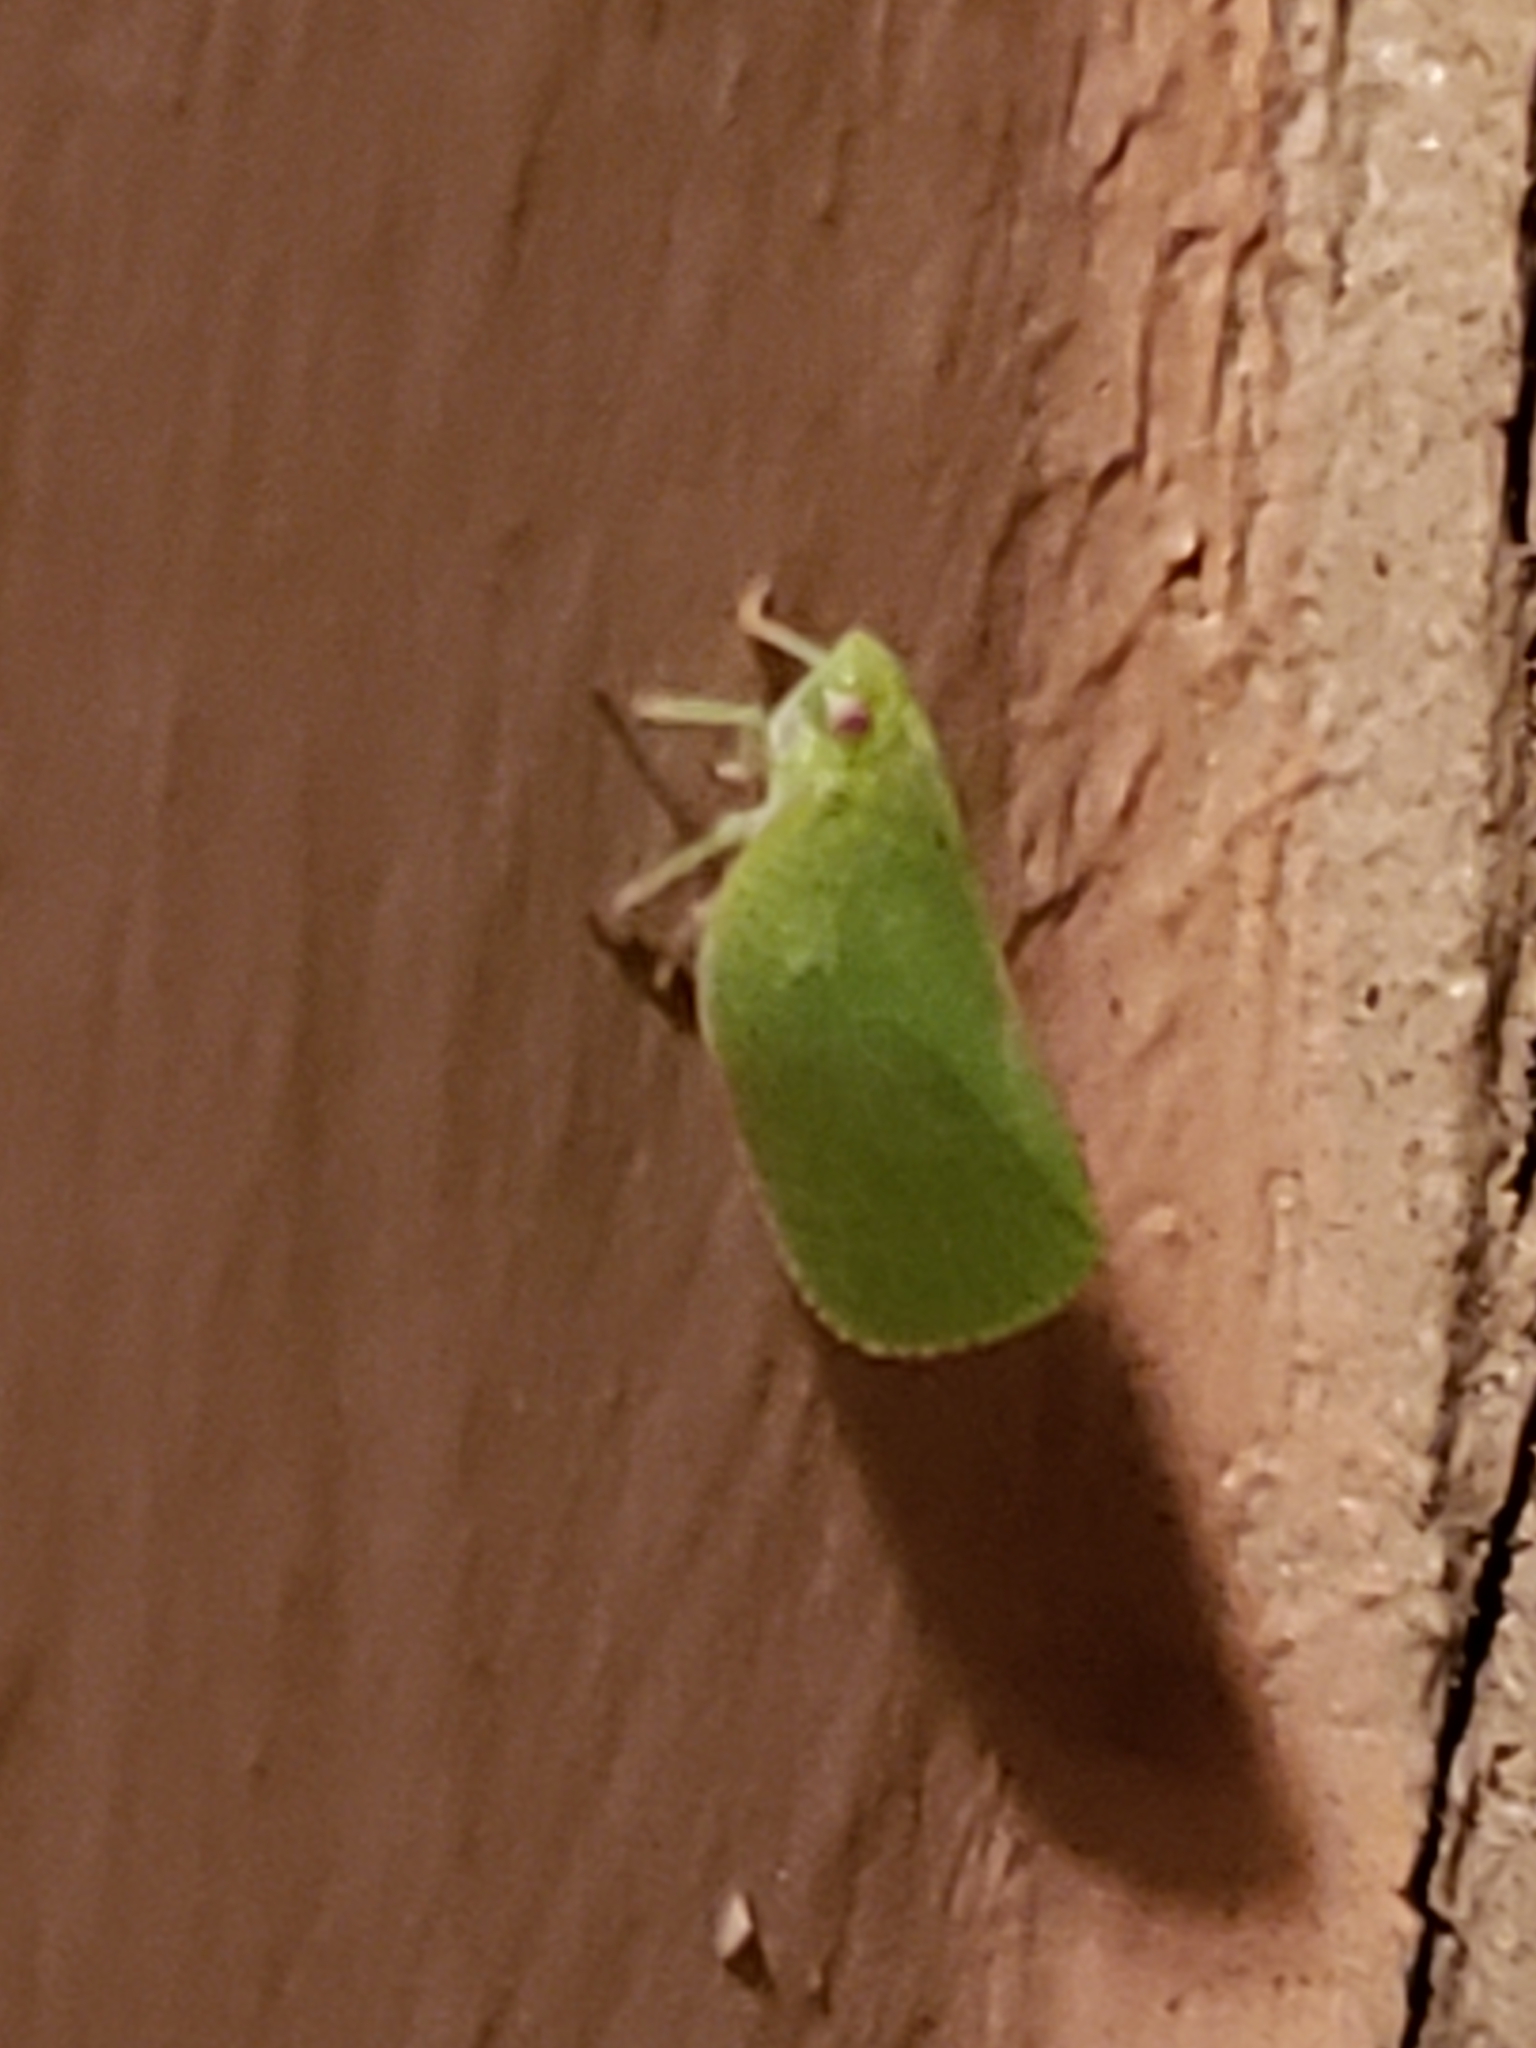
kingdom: Animalia
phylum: Arthropoda
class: Insecta
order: Hemiptera
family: Acanaloniidae
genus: Acanalonia
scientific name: Acanalonia conica
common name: Green cone-headed planthopper
